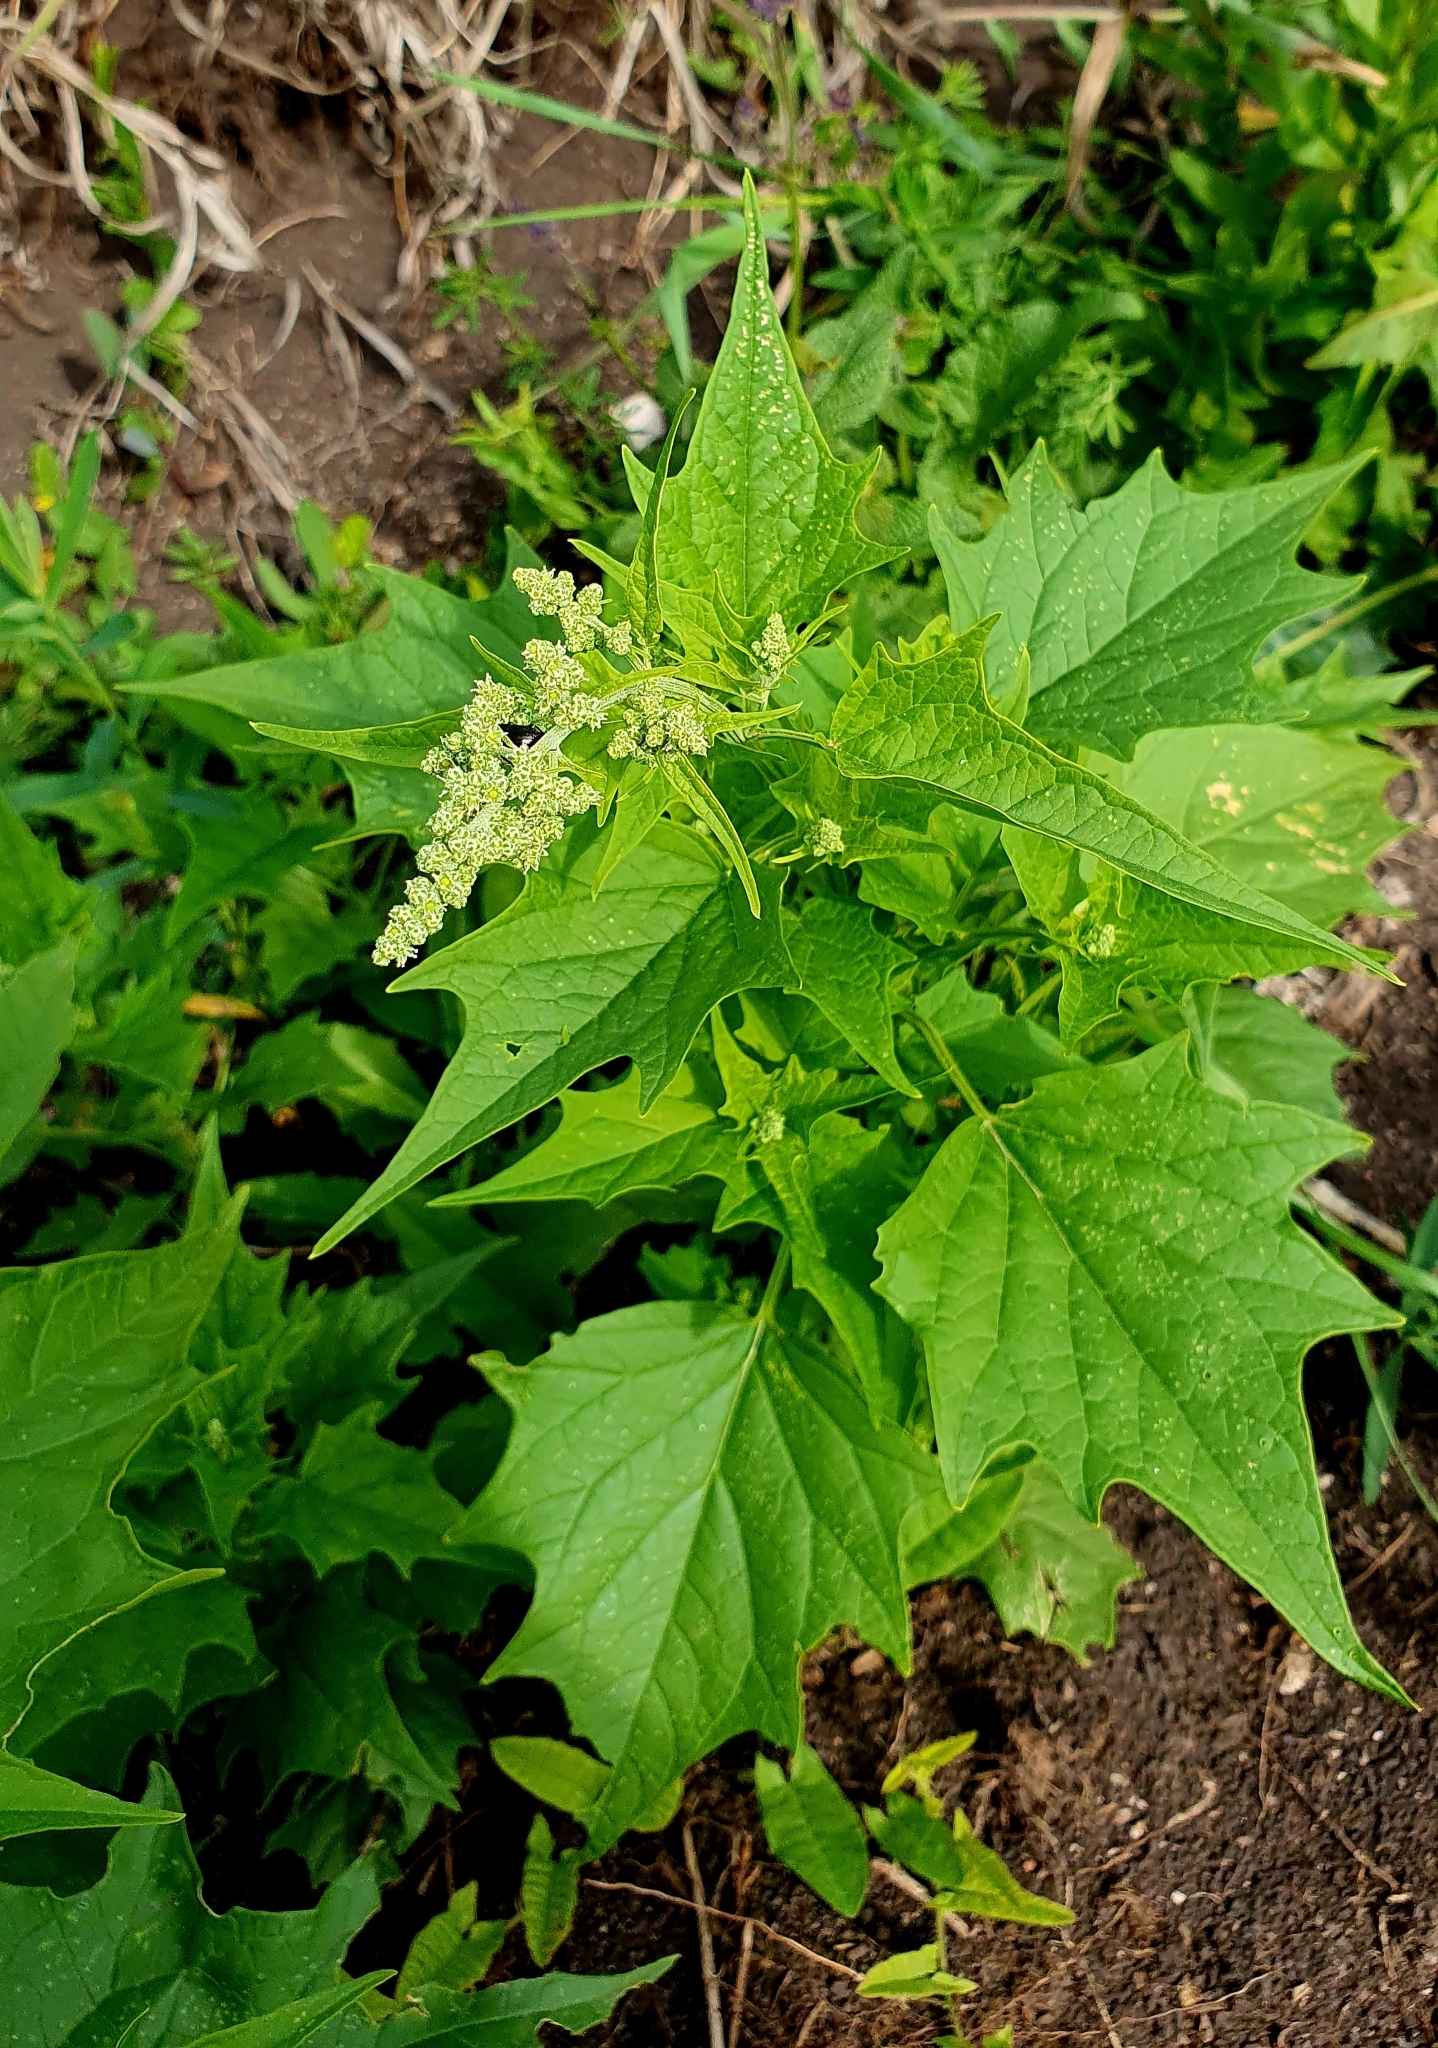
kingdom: Plantae
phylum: Tracheophyta
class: Magnoliopsida
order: Caryophyllales
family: Amaranthaceae
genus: Chenopodiastrum
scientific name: Chenopodiastrum hybridum
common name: Mapleleaf goosefoot
